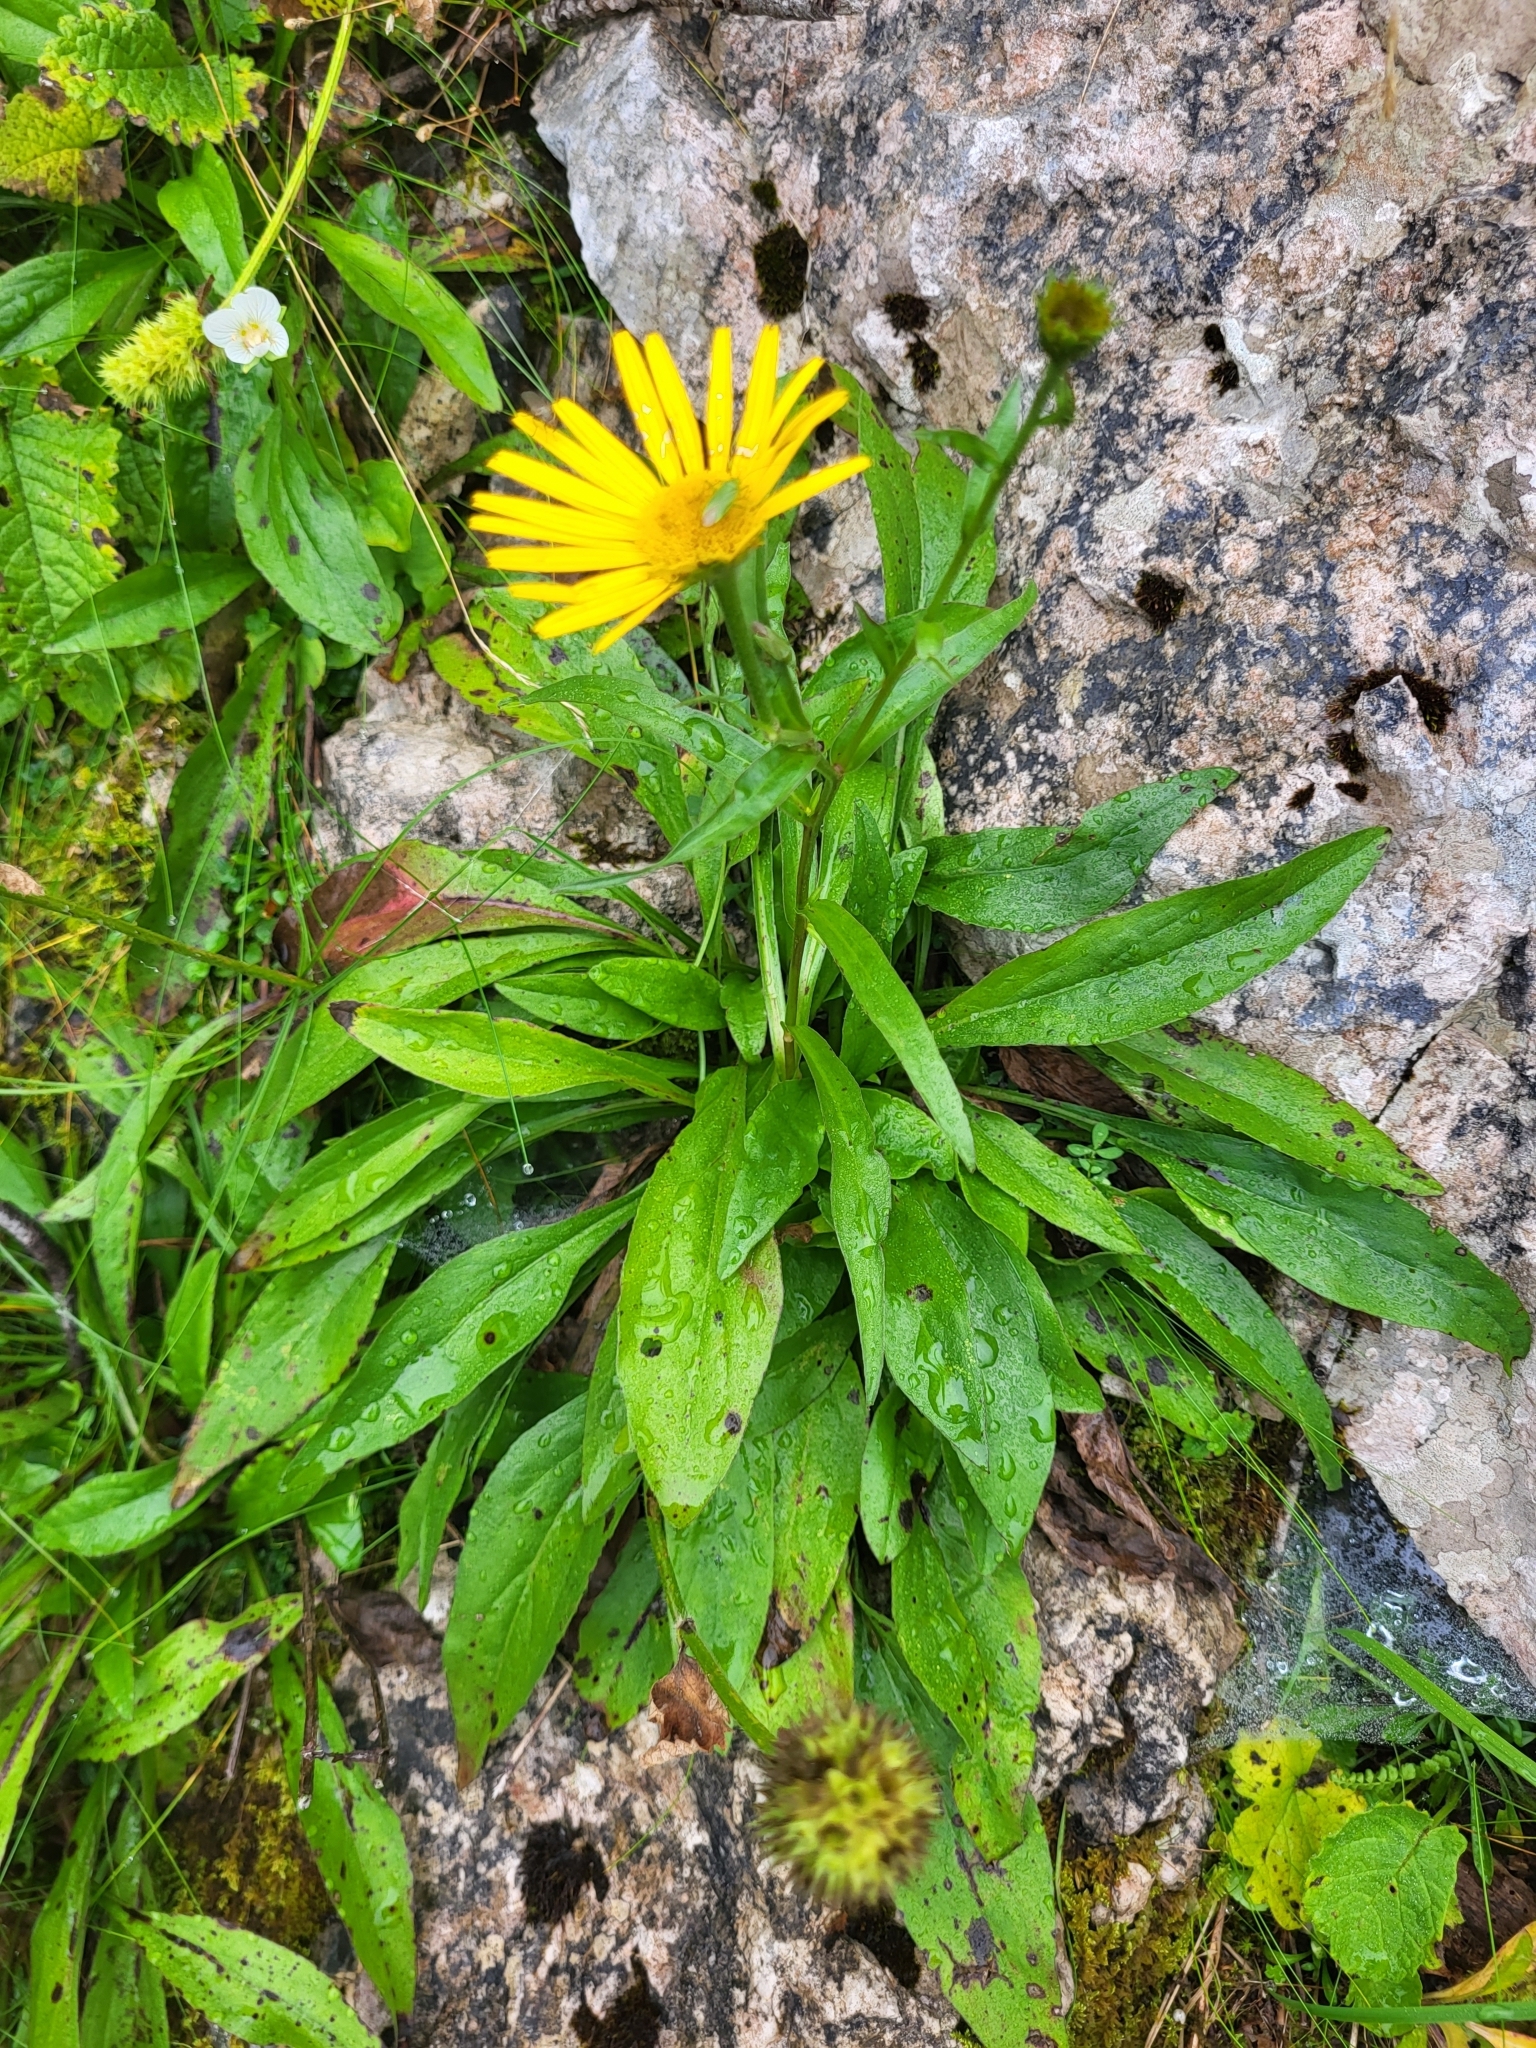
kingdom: Plantae
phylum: Tracheophyta
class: Magnoliopsida
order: Asterales
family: Asteraceae
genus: Buphthalmum
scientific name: Buphthalmum salicifolium
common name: Willow-leaved yellow-oxeye
